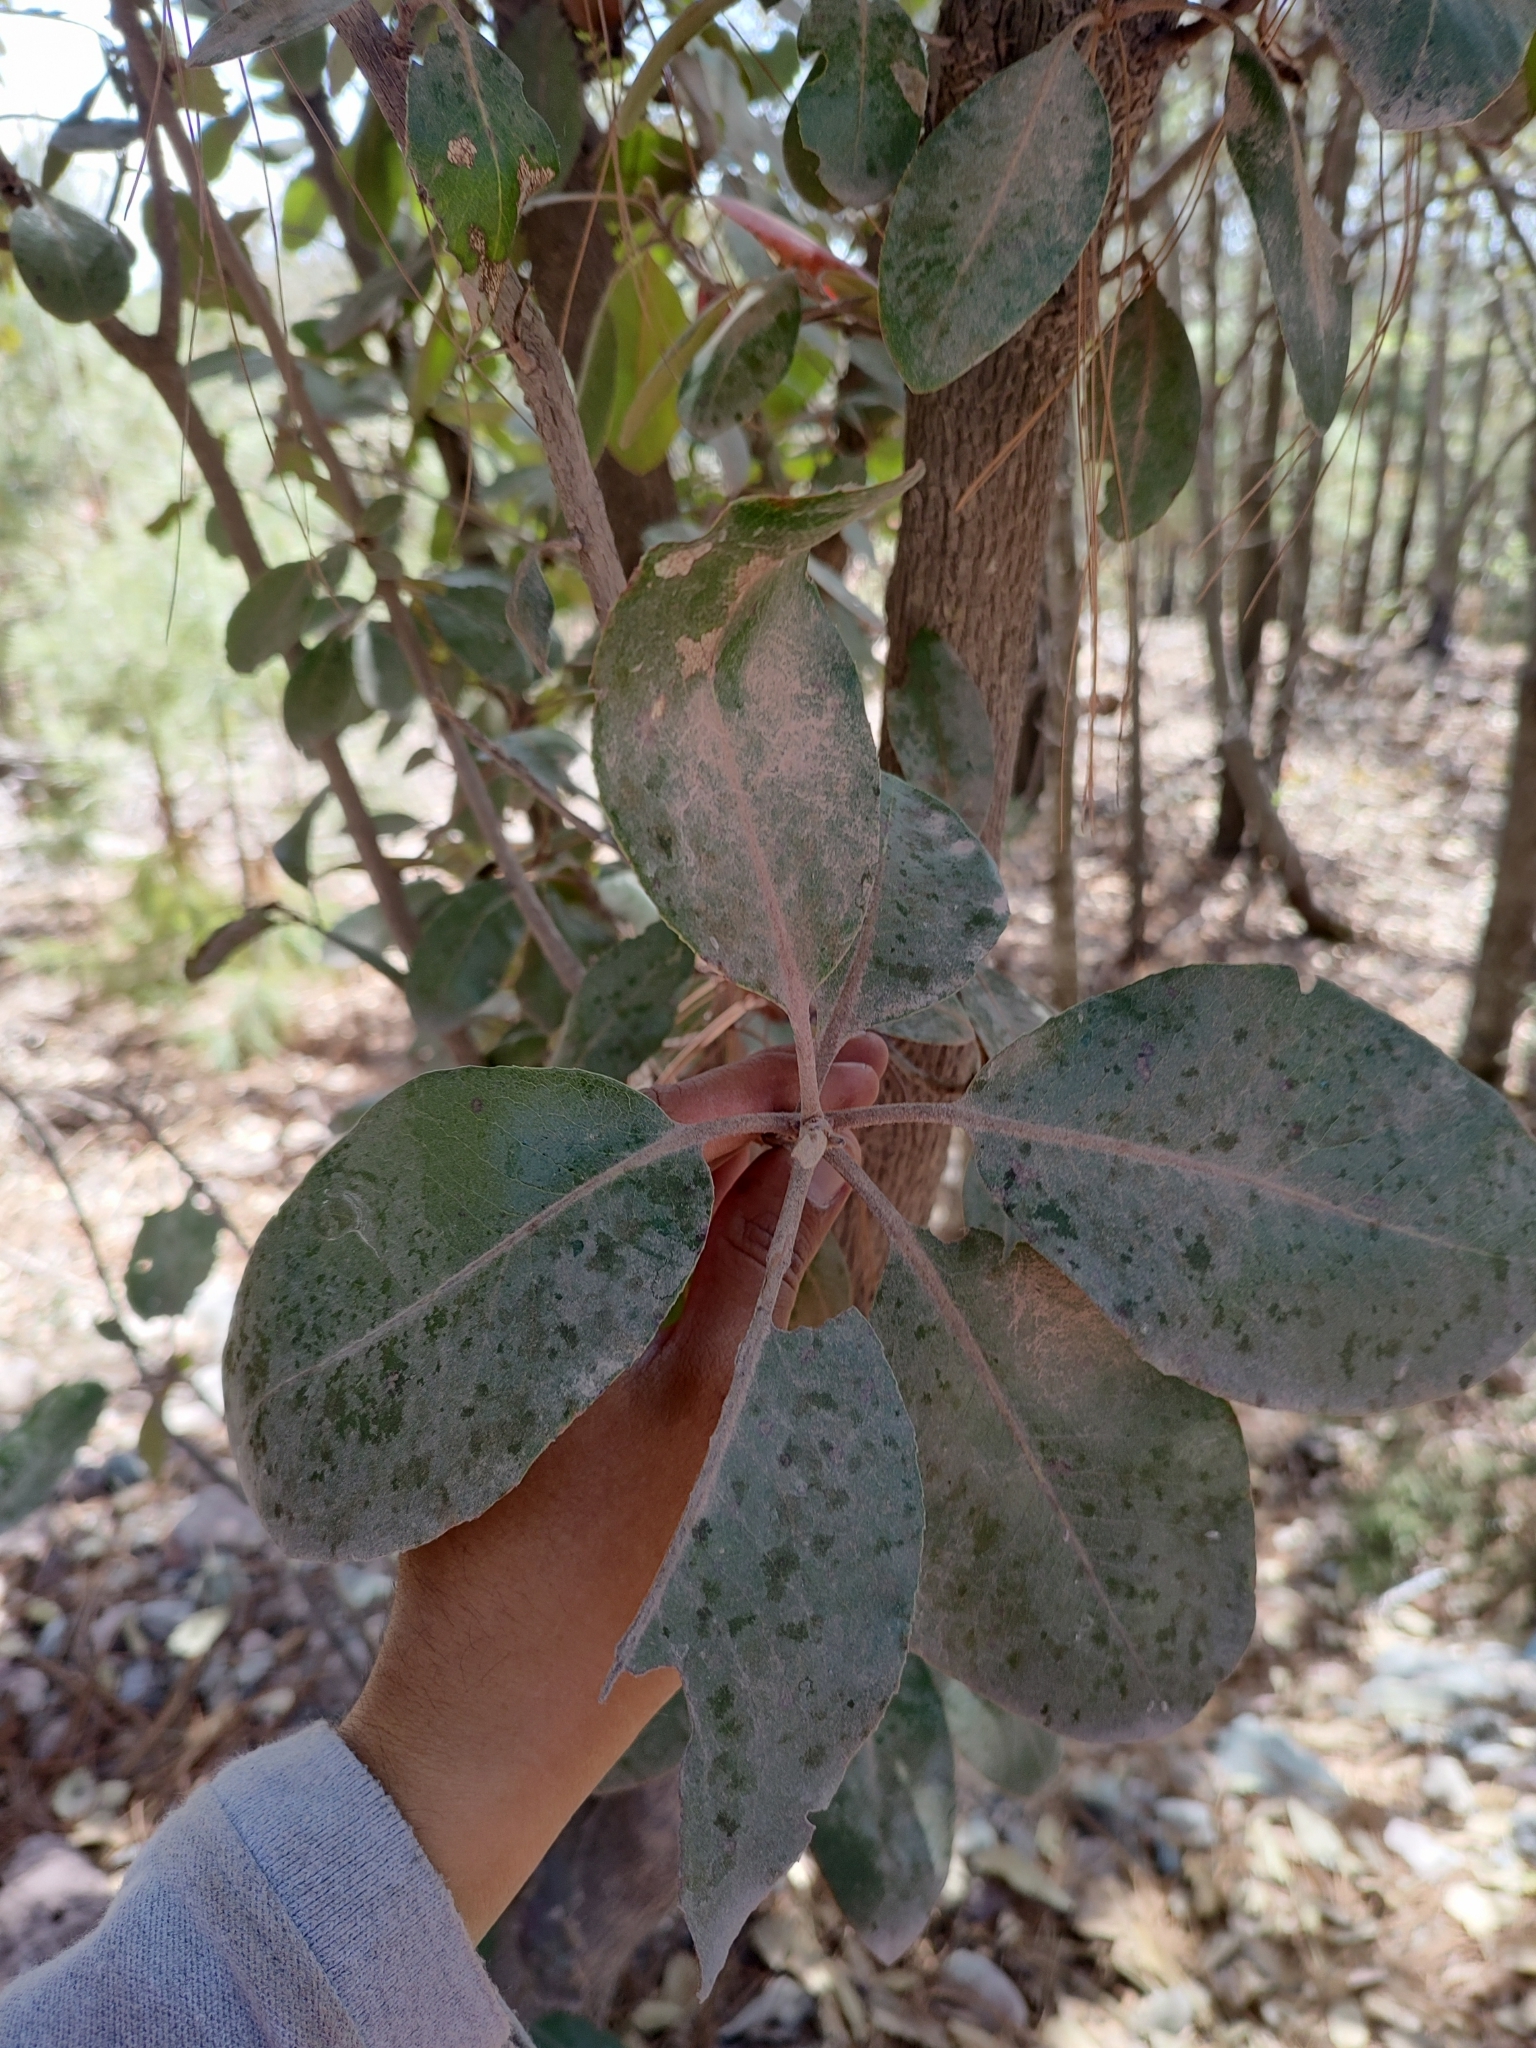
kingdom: Plantae
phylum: Tracheophyta
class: Magnoliopsida
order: Ericales
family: Ericaceae
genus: Arbutus
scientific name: Arbutus madrensis
